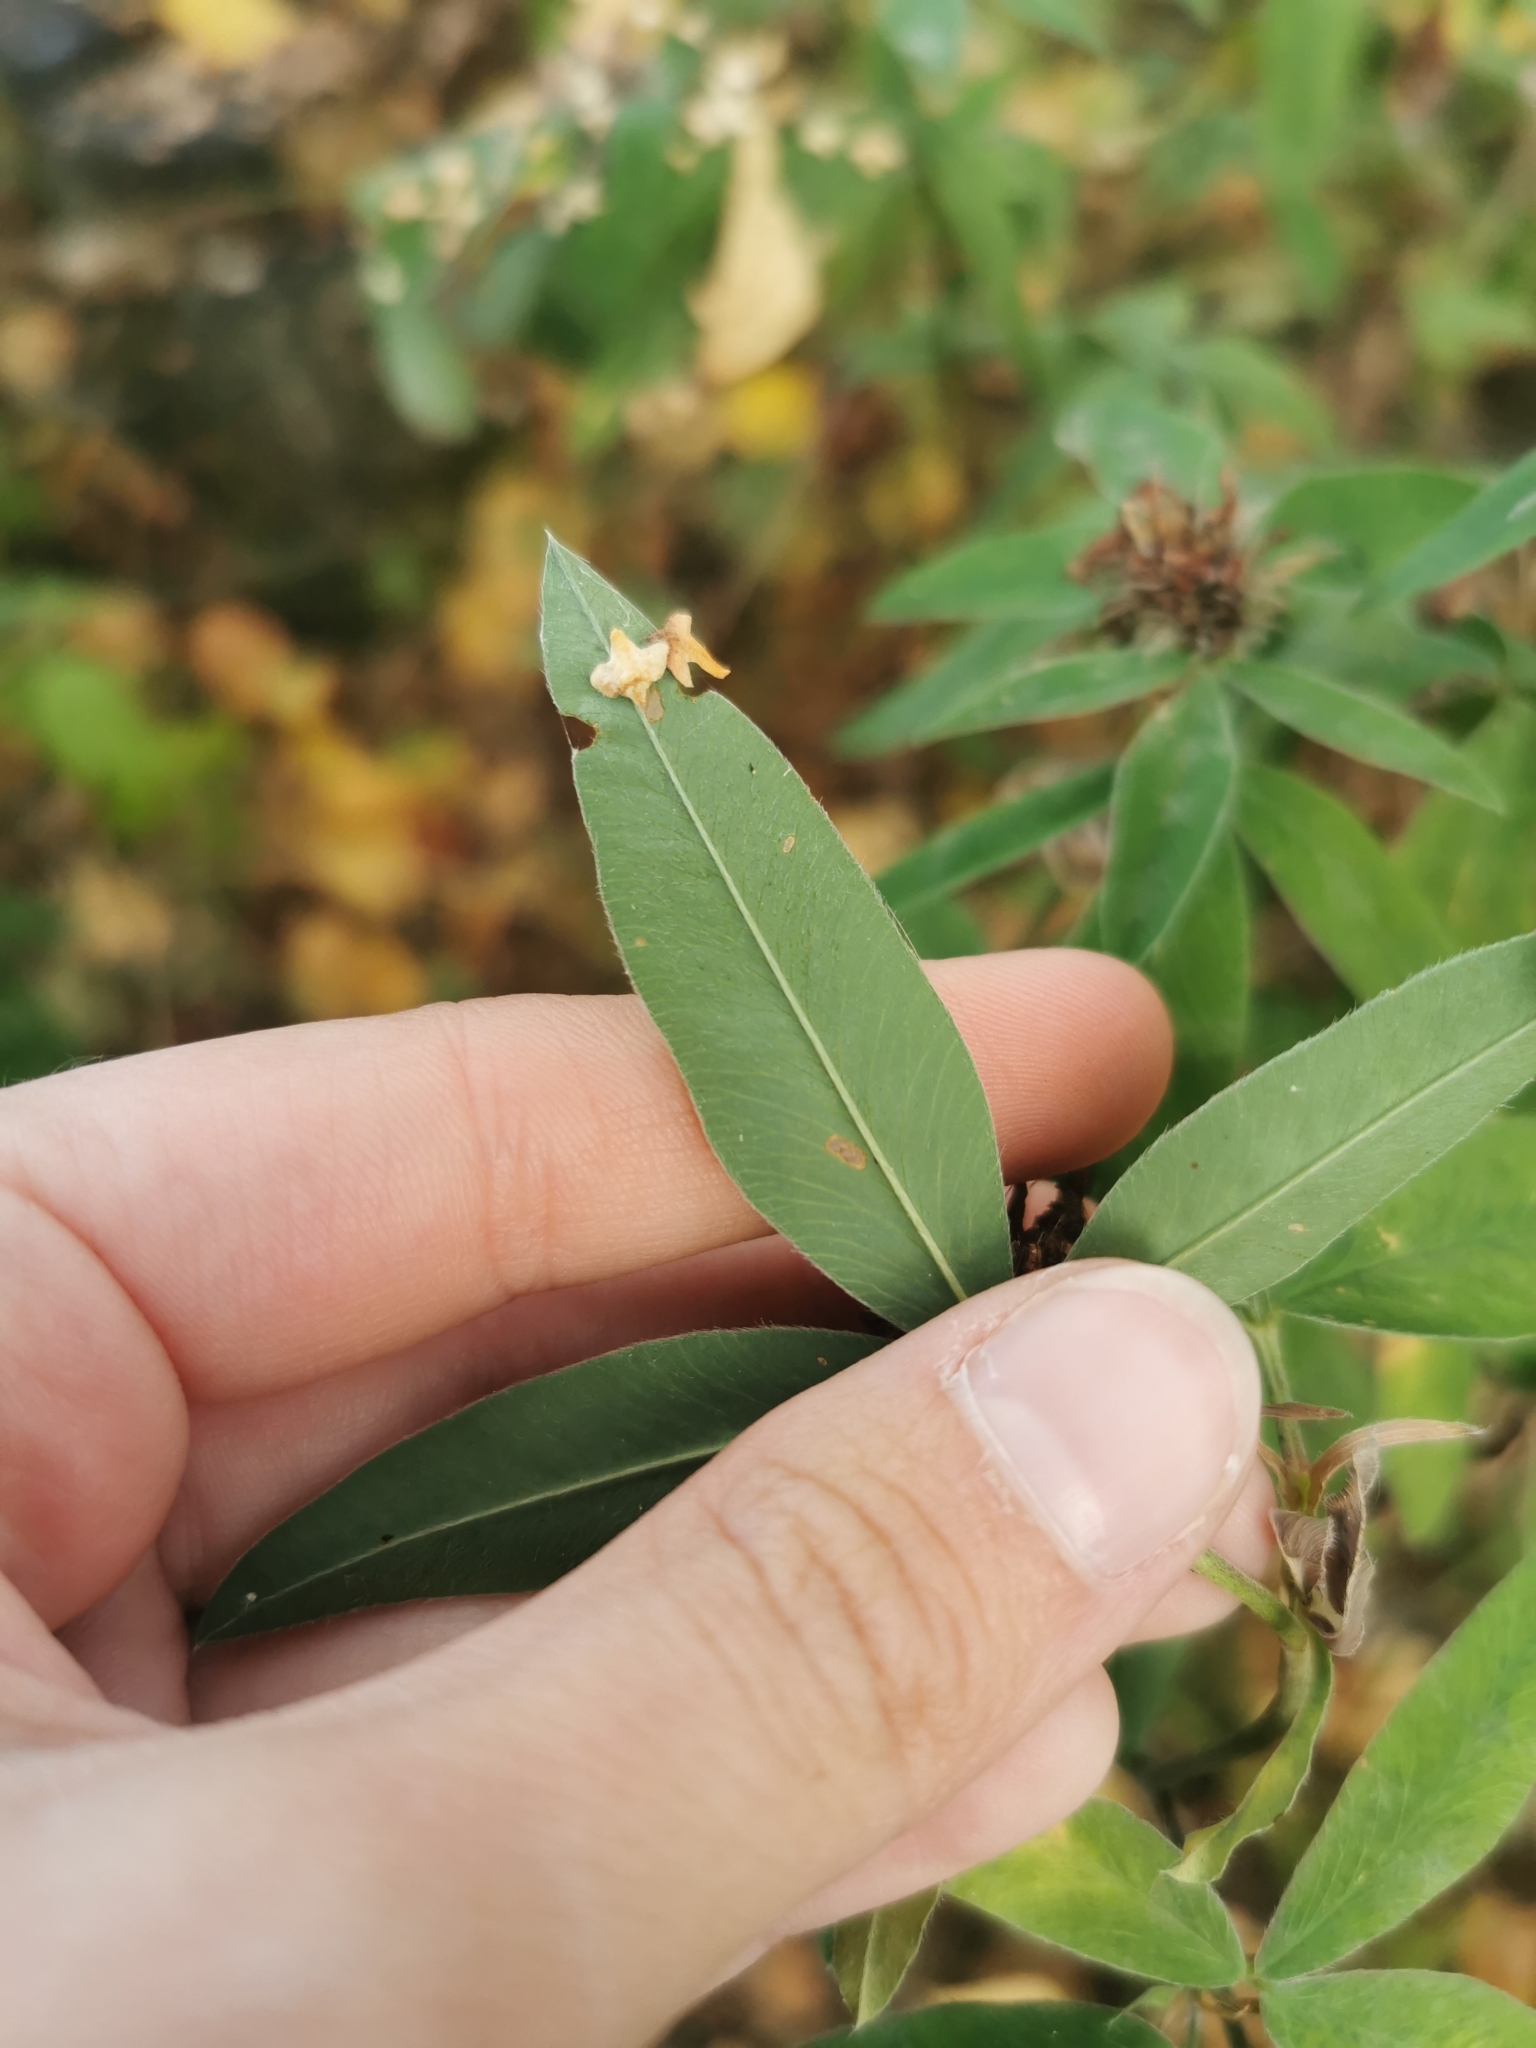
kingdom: Plantae
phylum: Tracheophyta
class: Magnoliopsida
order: Fabales
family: Fabaceae
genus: Trifolium
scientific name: Trifolium medium
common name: Zigzag clover
